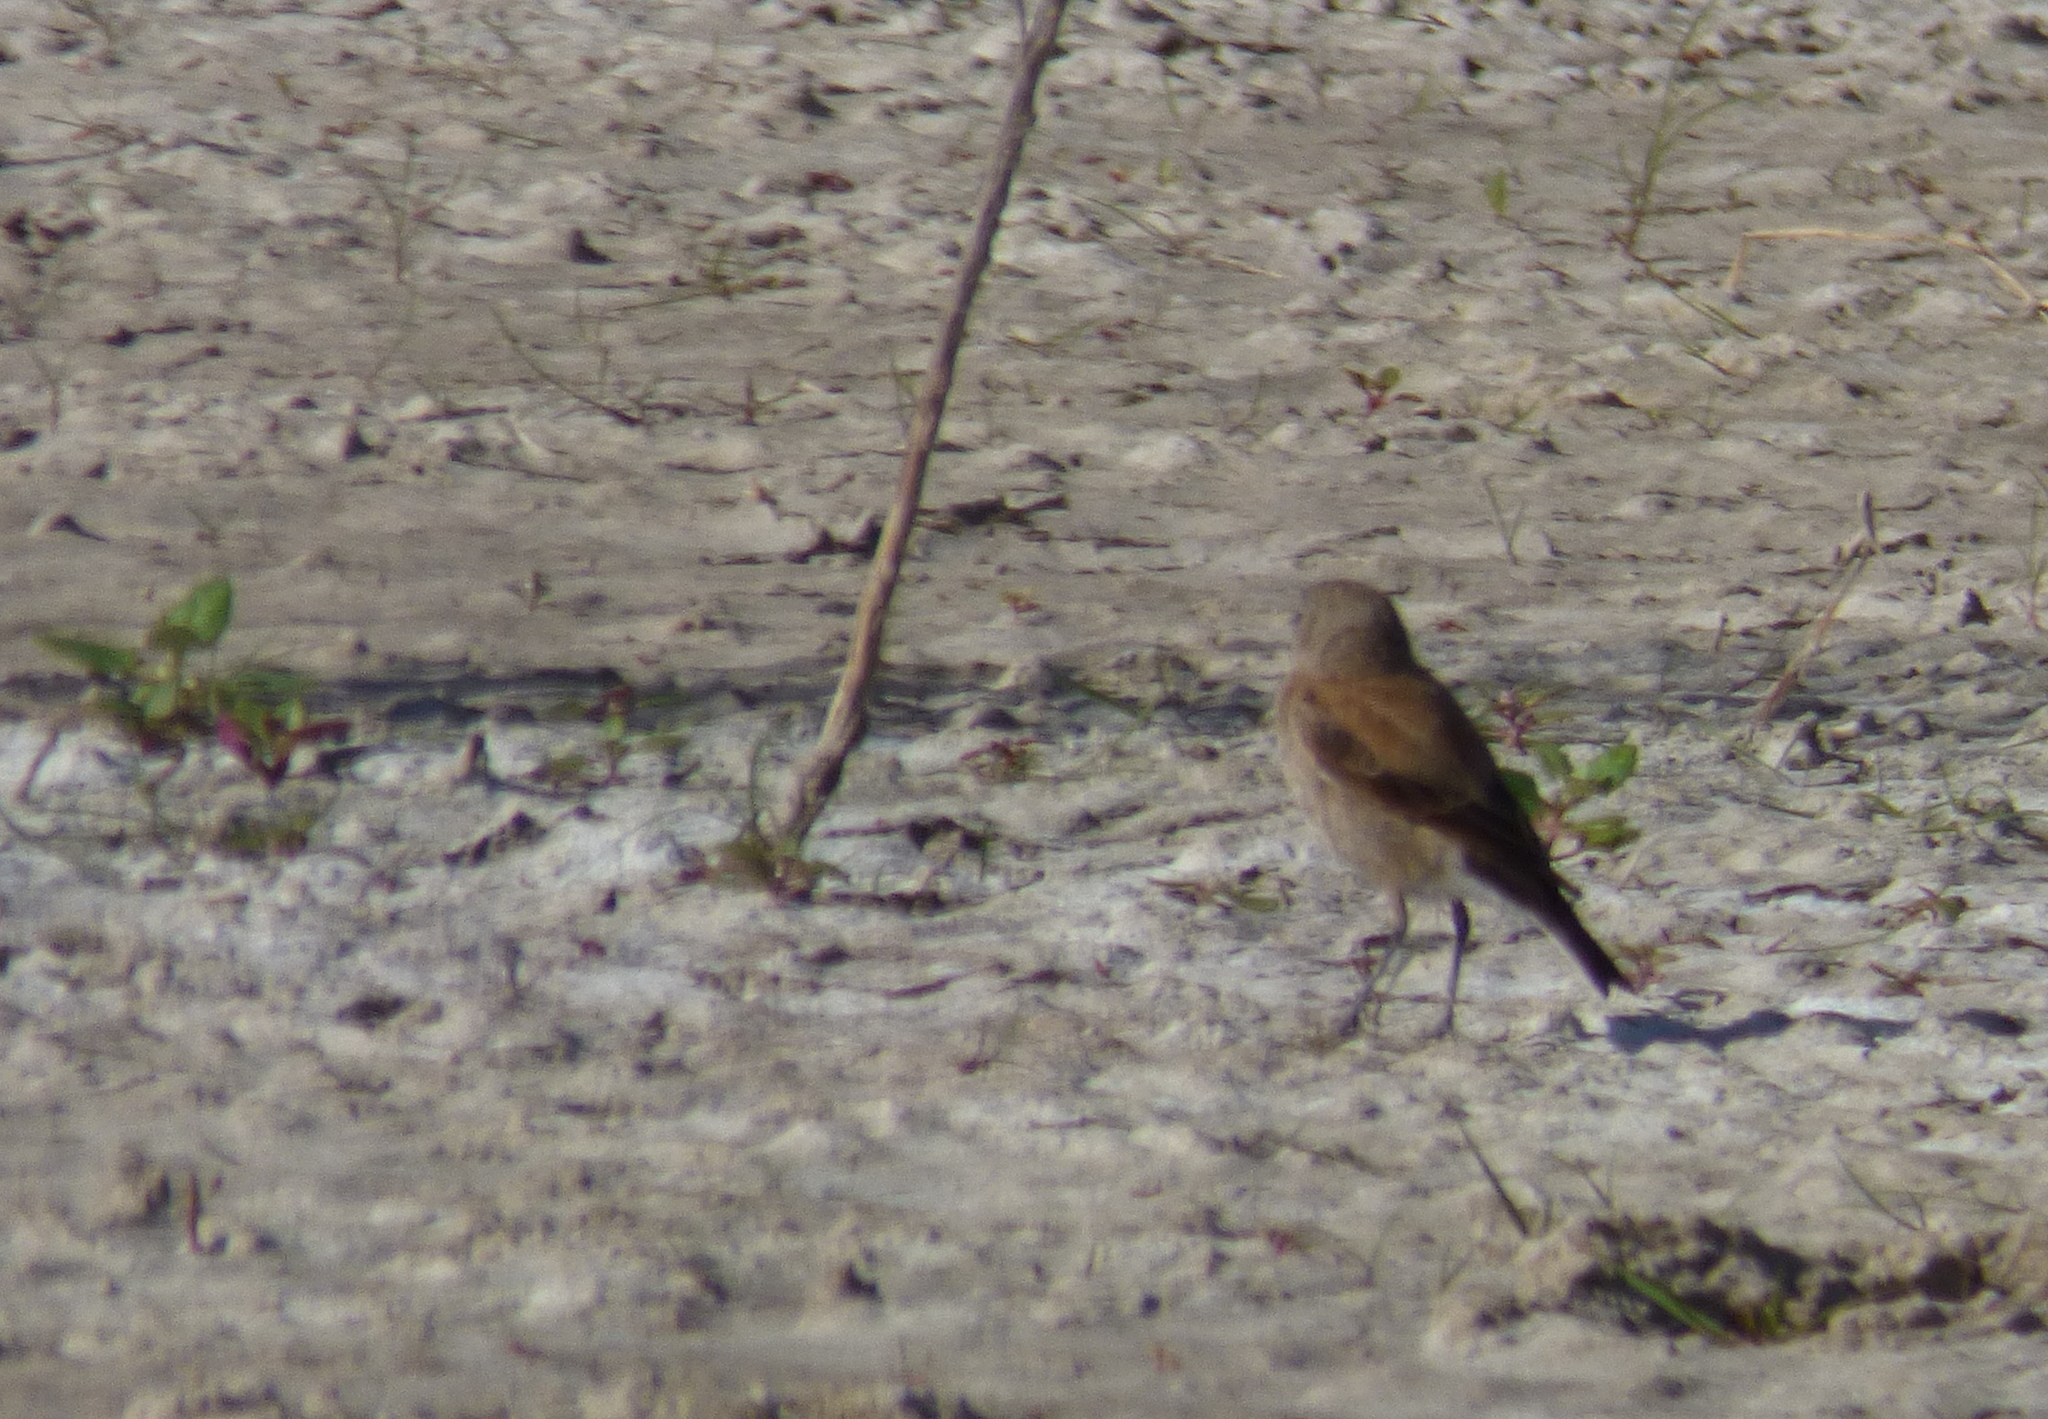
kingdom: Animalia
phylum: Chordata
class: Aves
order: Passeriformes
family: Tyrannidae
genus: Lessonia
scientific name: Lessonia rufa
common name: Austral negrito
